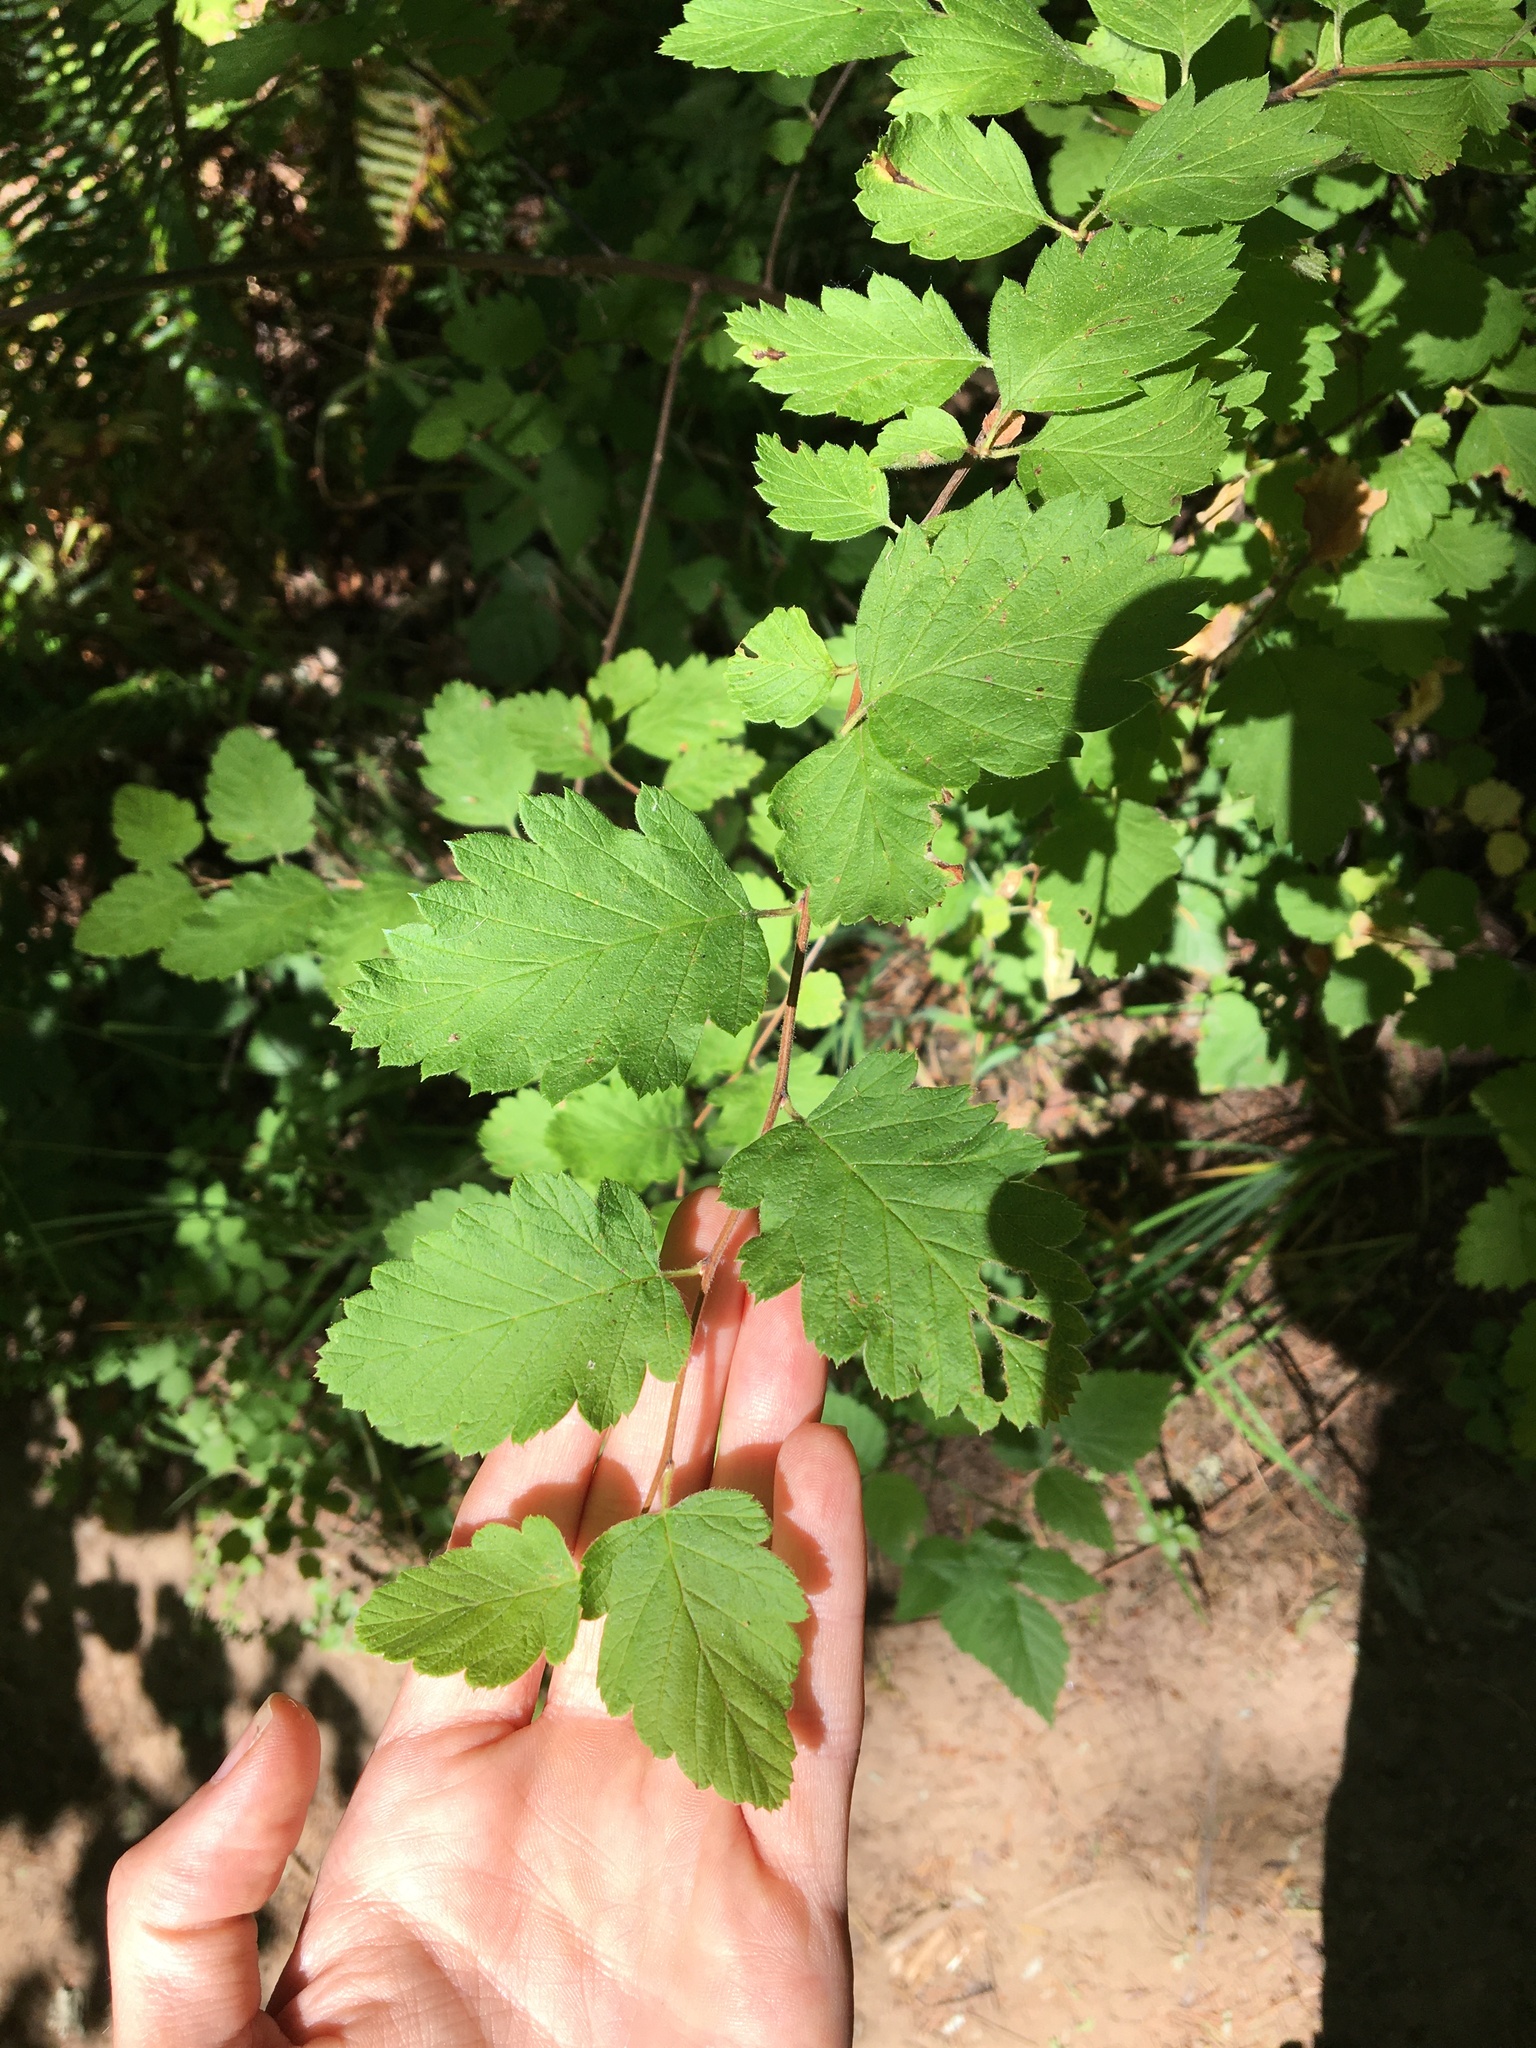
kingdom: Plantae
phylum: Tracheophyta
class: Magnoliopsida
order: Rosales
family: Rosaceae
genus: Holodiscus
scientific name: Holodiscus discolor
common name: Oceanspray
